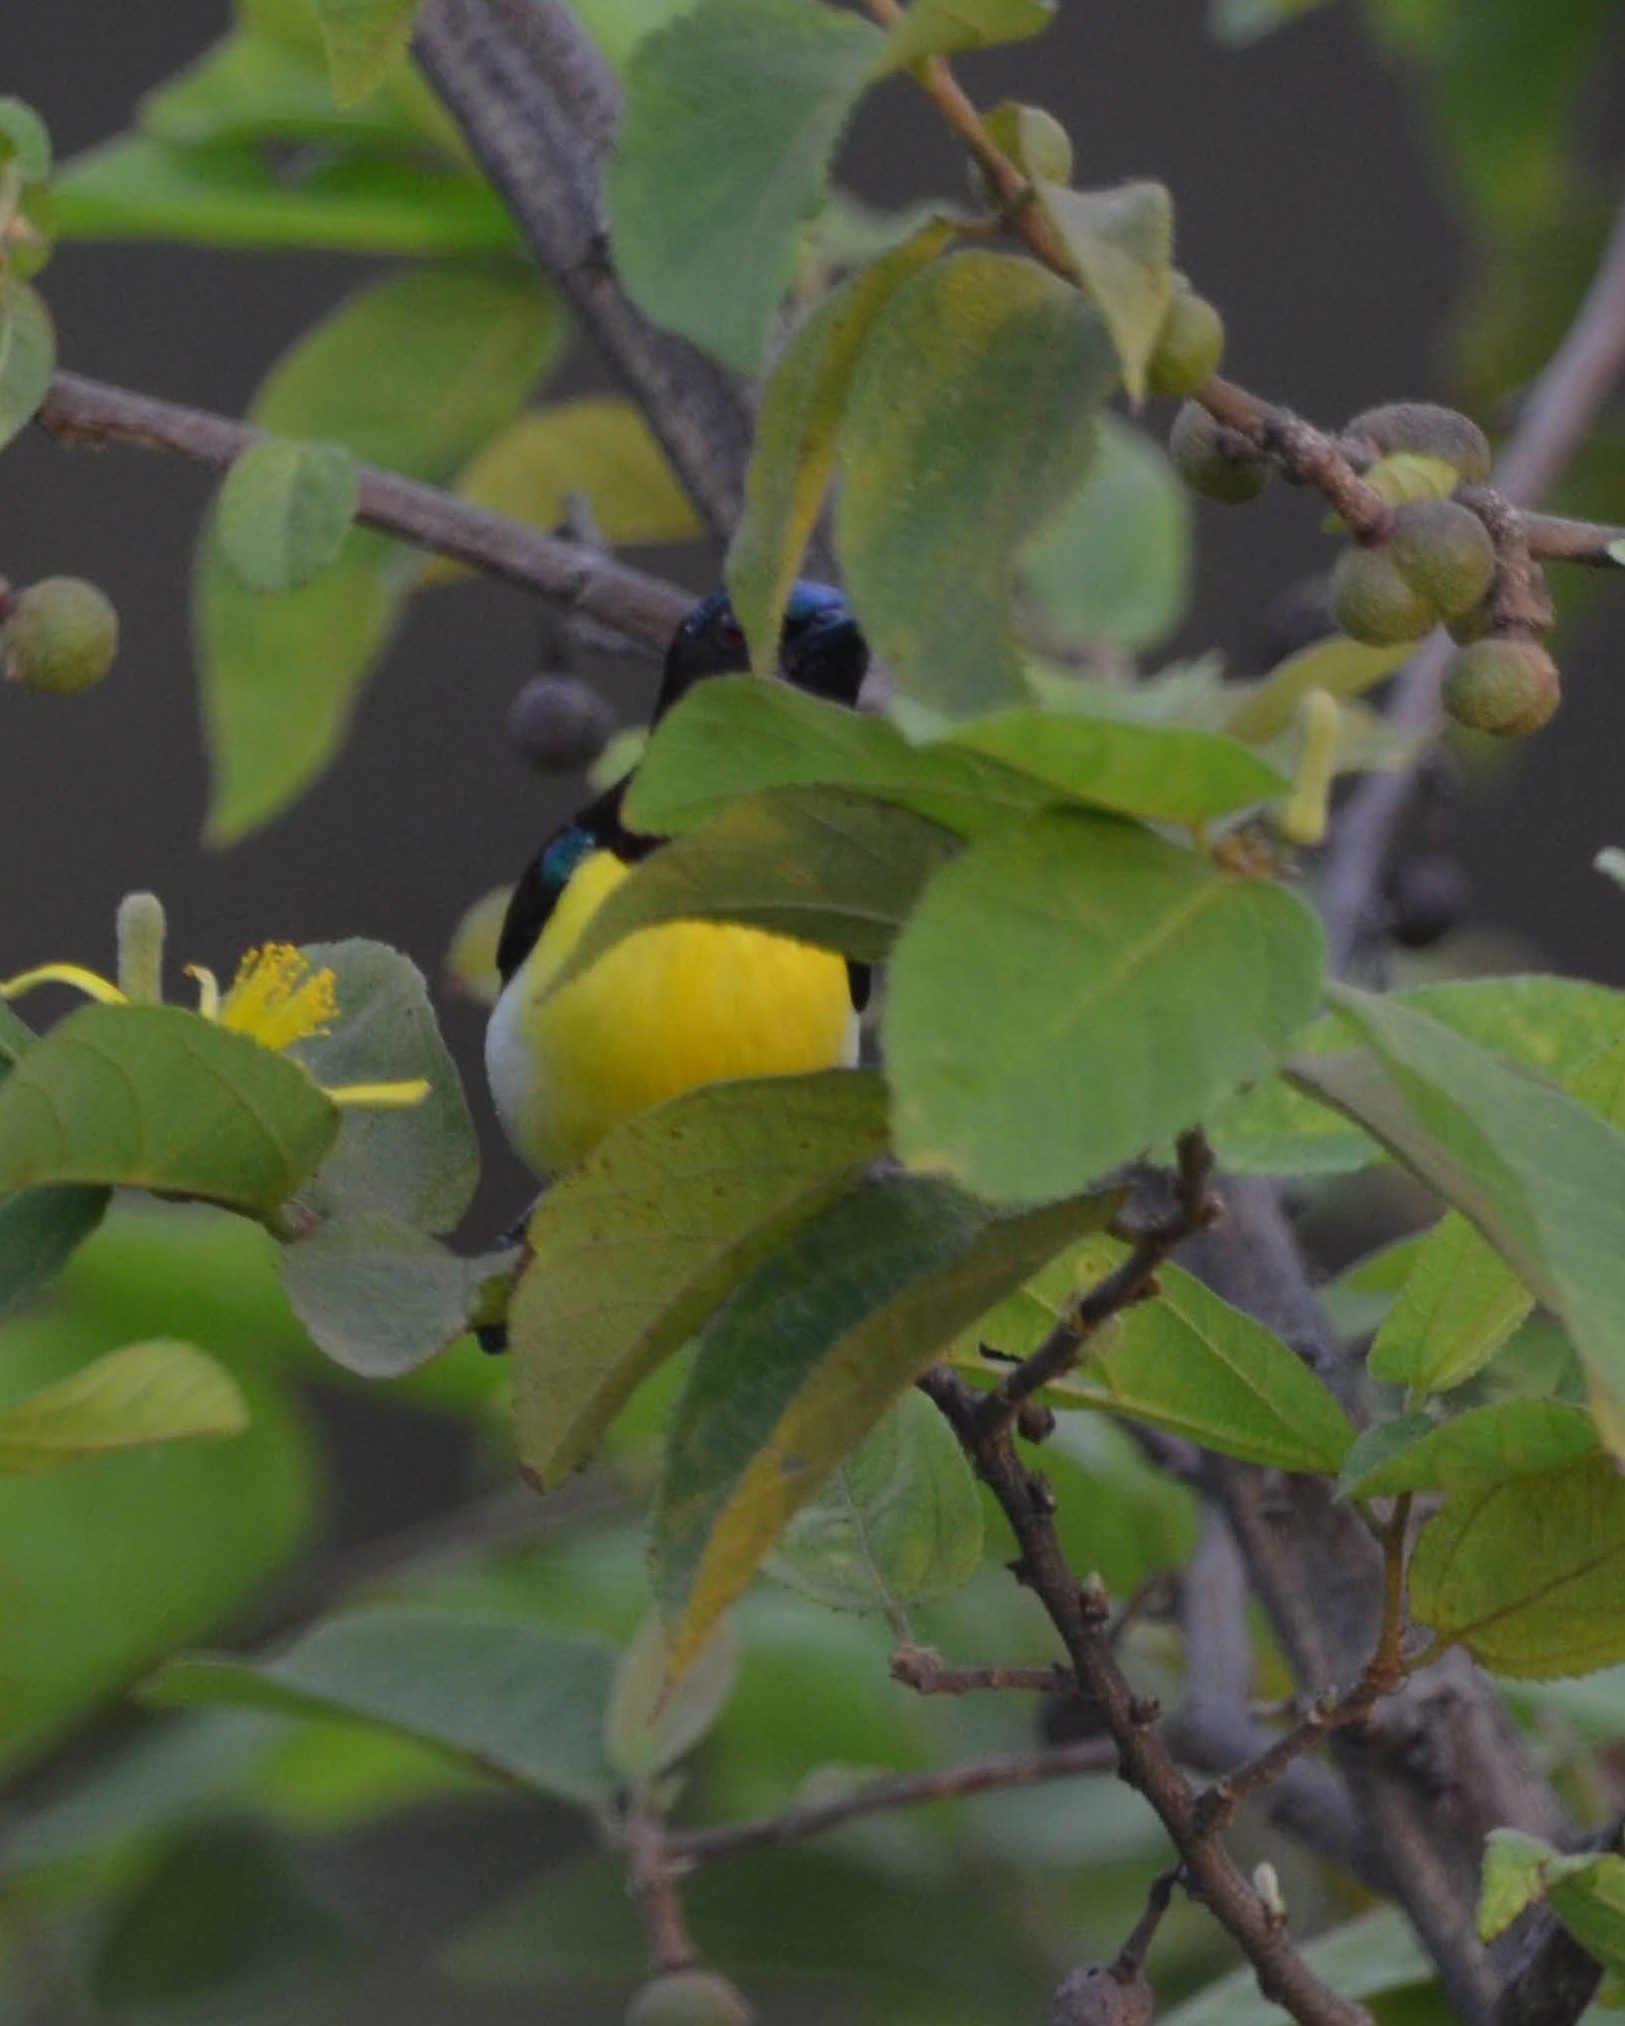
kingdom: Animalia
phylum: Chordata
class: Aves
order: Passeriformes
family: Nectariniidae
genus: Leptocoma
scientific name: Leptocoma zeylonica
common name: Purple-rumped sunbird
